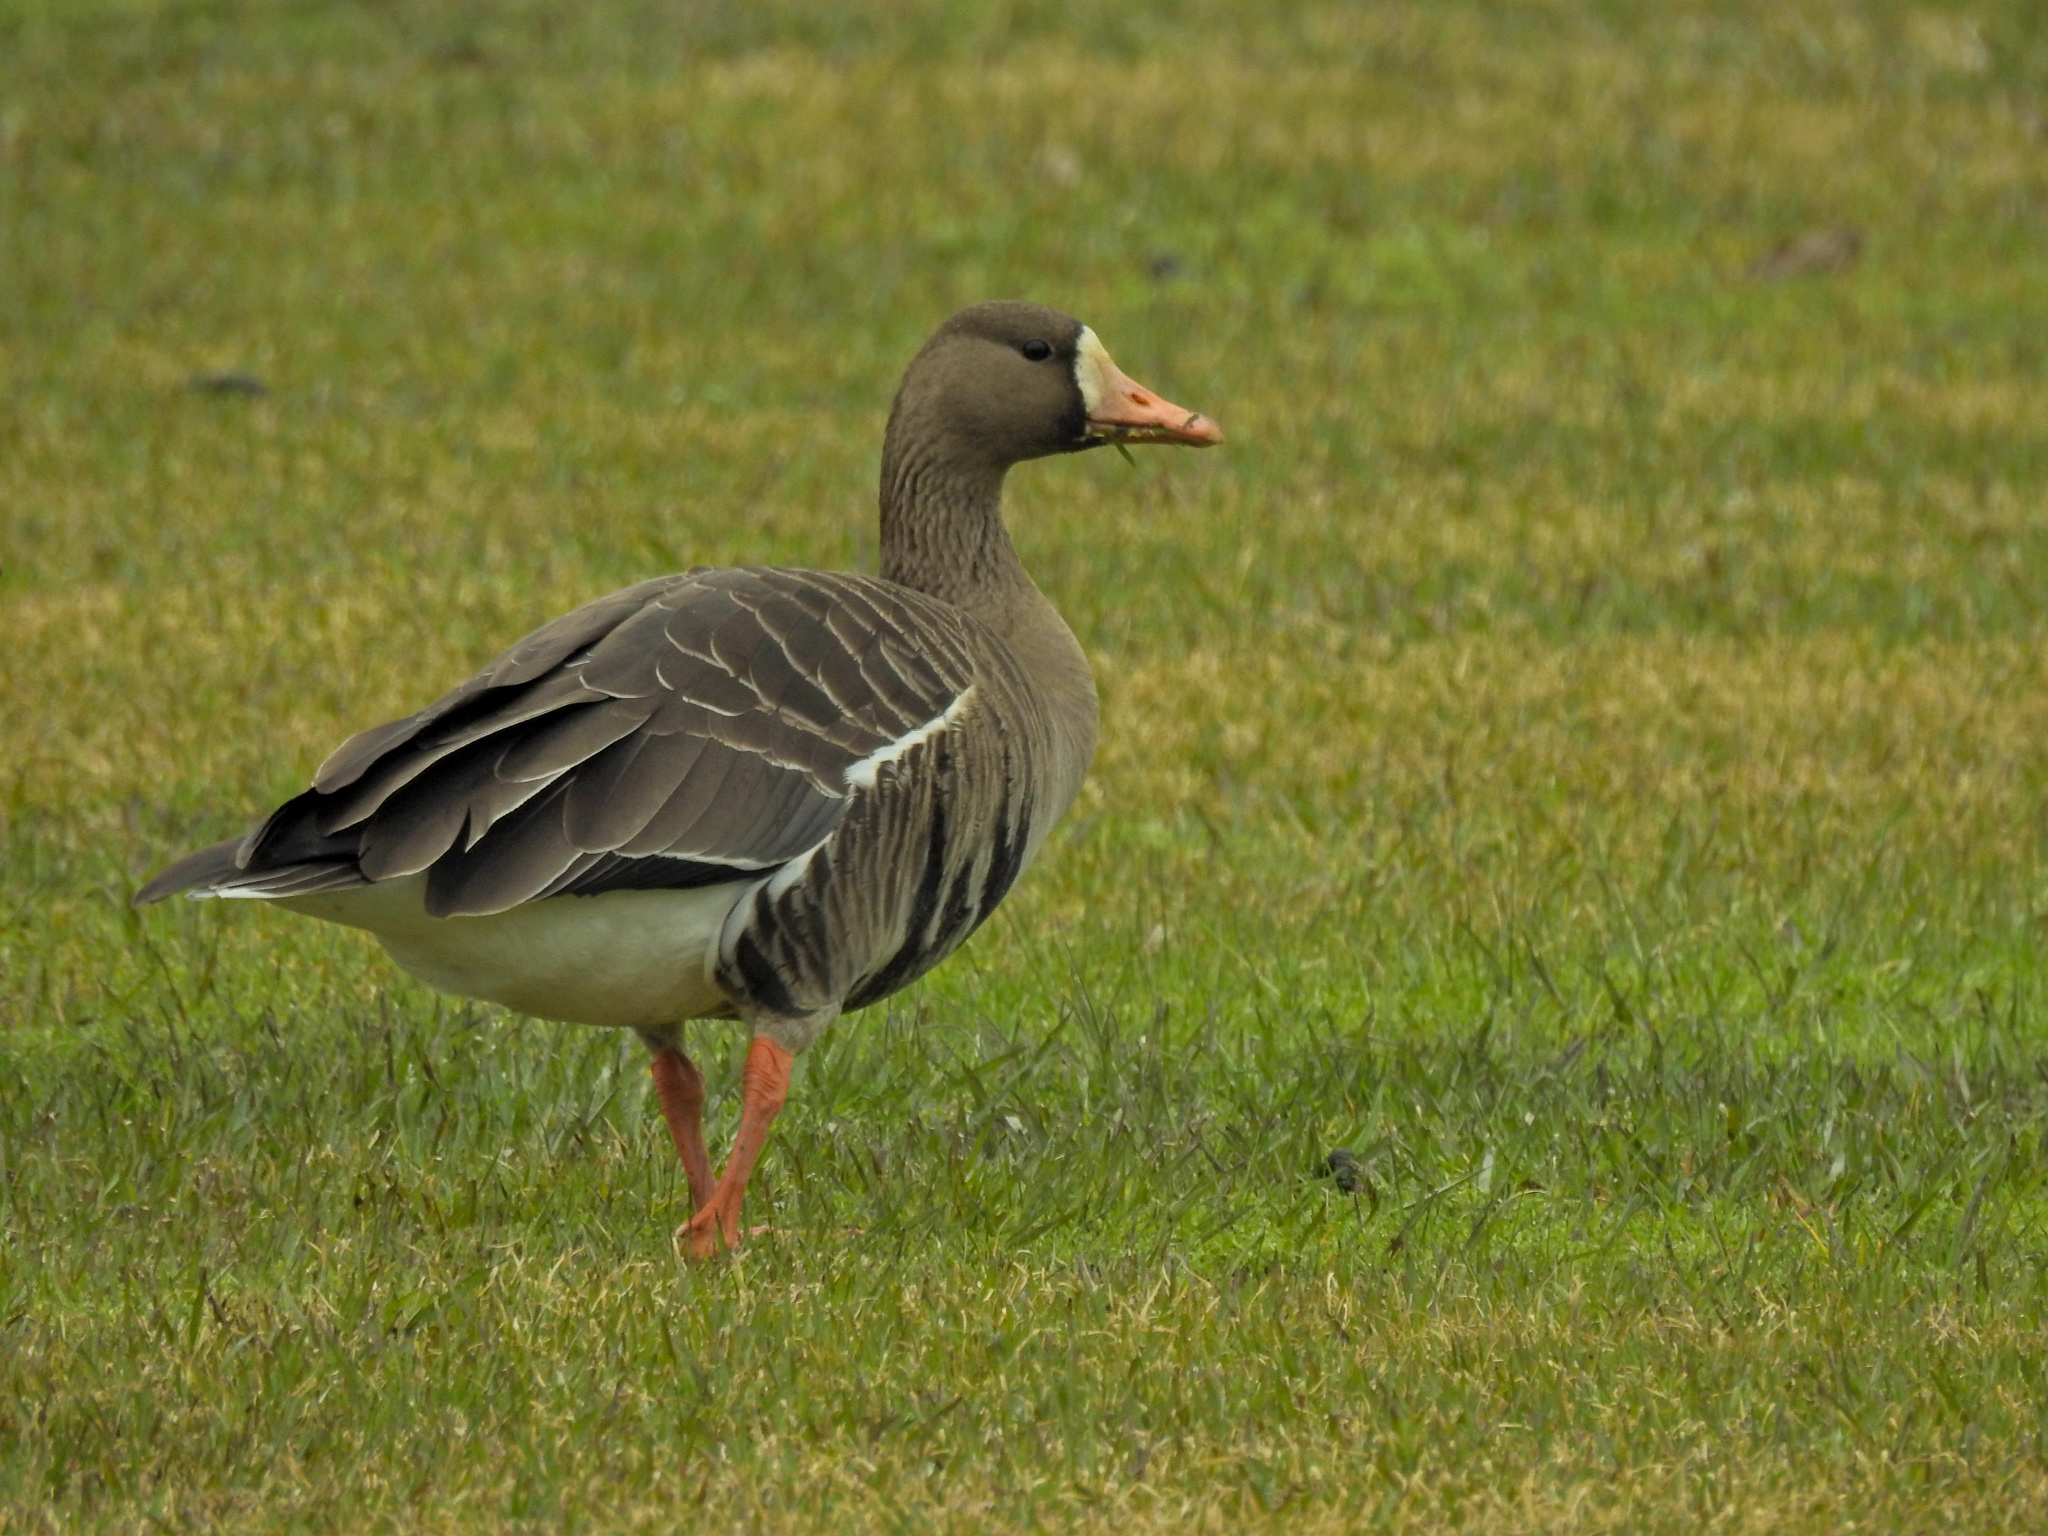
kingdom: Animalia
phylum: Chordata
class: Aves
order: Anseriformes
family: Anatidae
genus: Anser
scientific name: Anser albifrons
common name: Greater white-fronted goose
